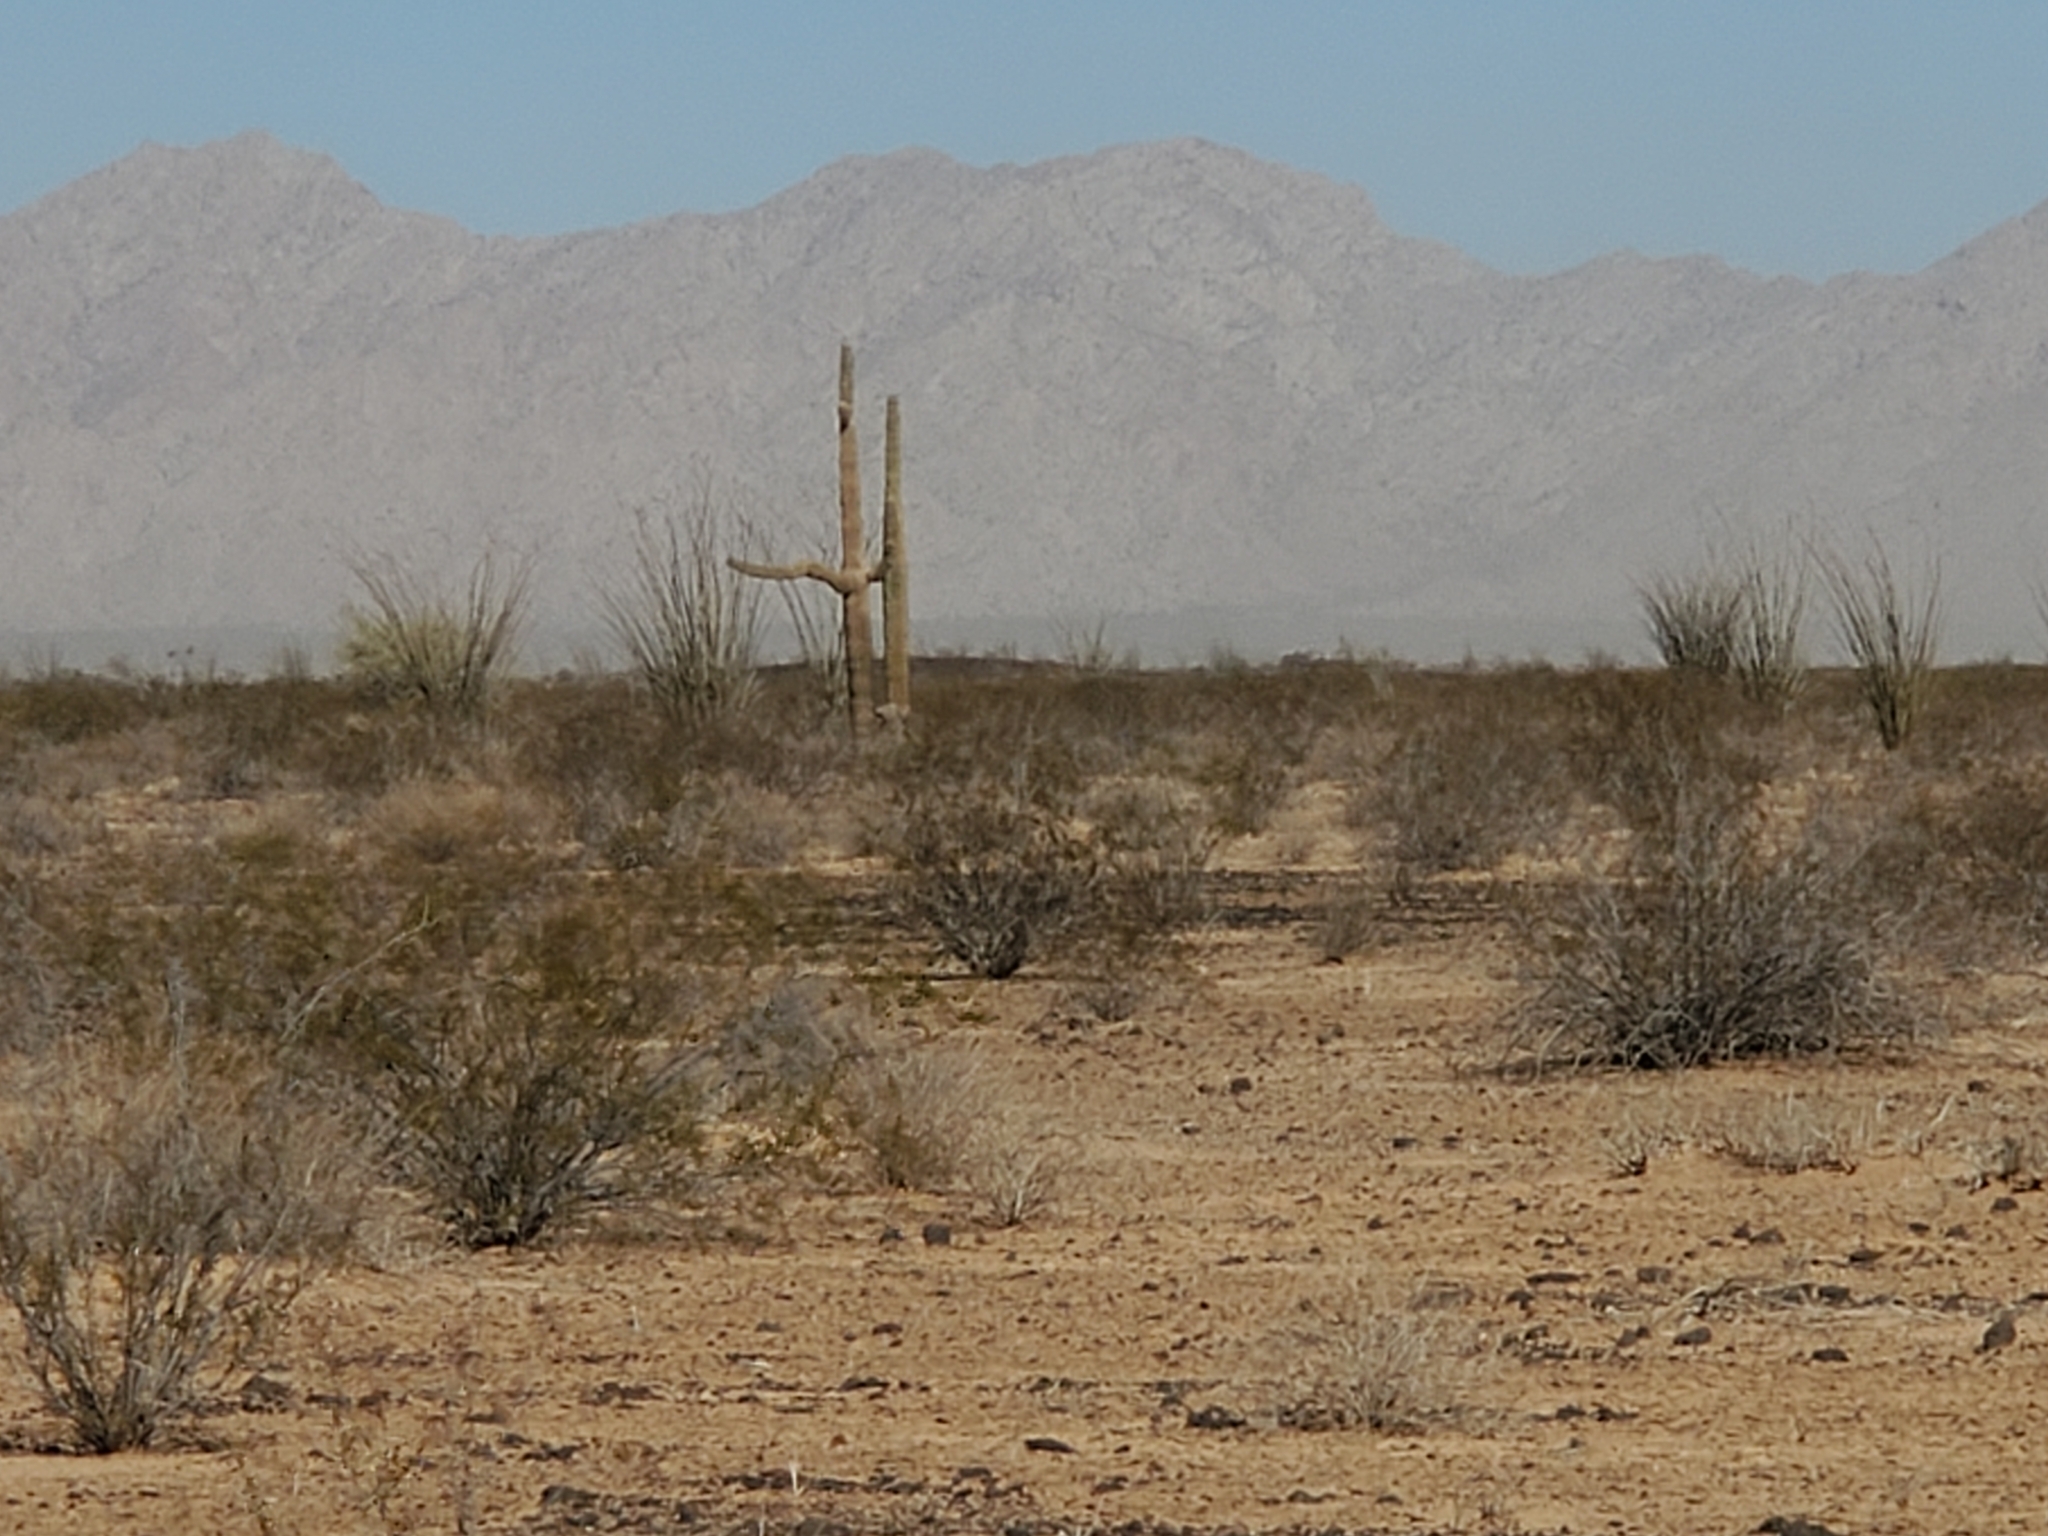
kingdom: Plantae
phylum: Tracheophyta
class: Magnoliopsida
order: Caryophyllales
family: Cactaceae
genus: Carnegiea
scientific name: Carnegiea gigantea
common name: Saguaro
